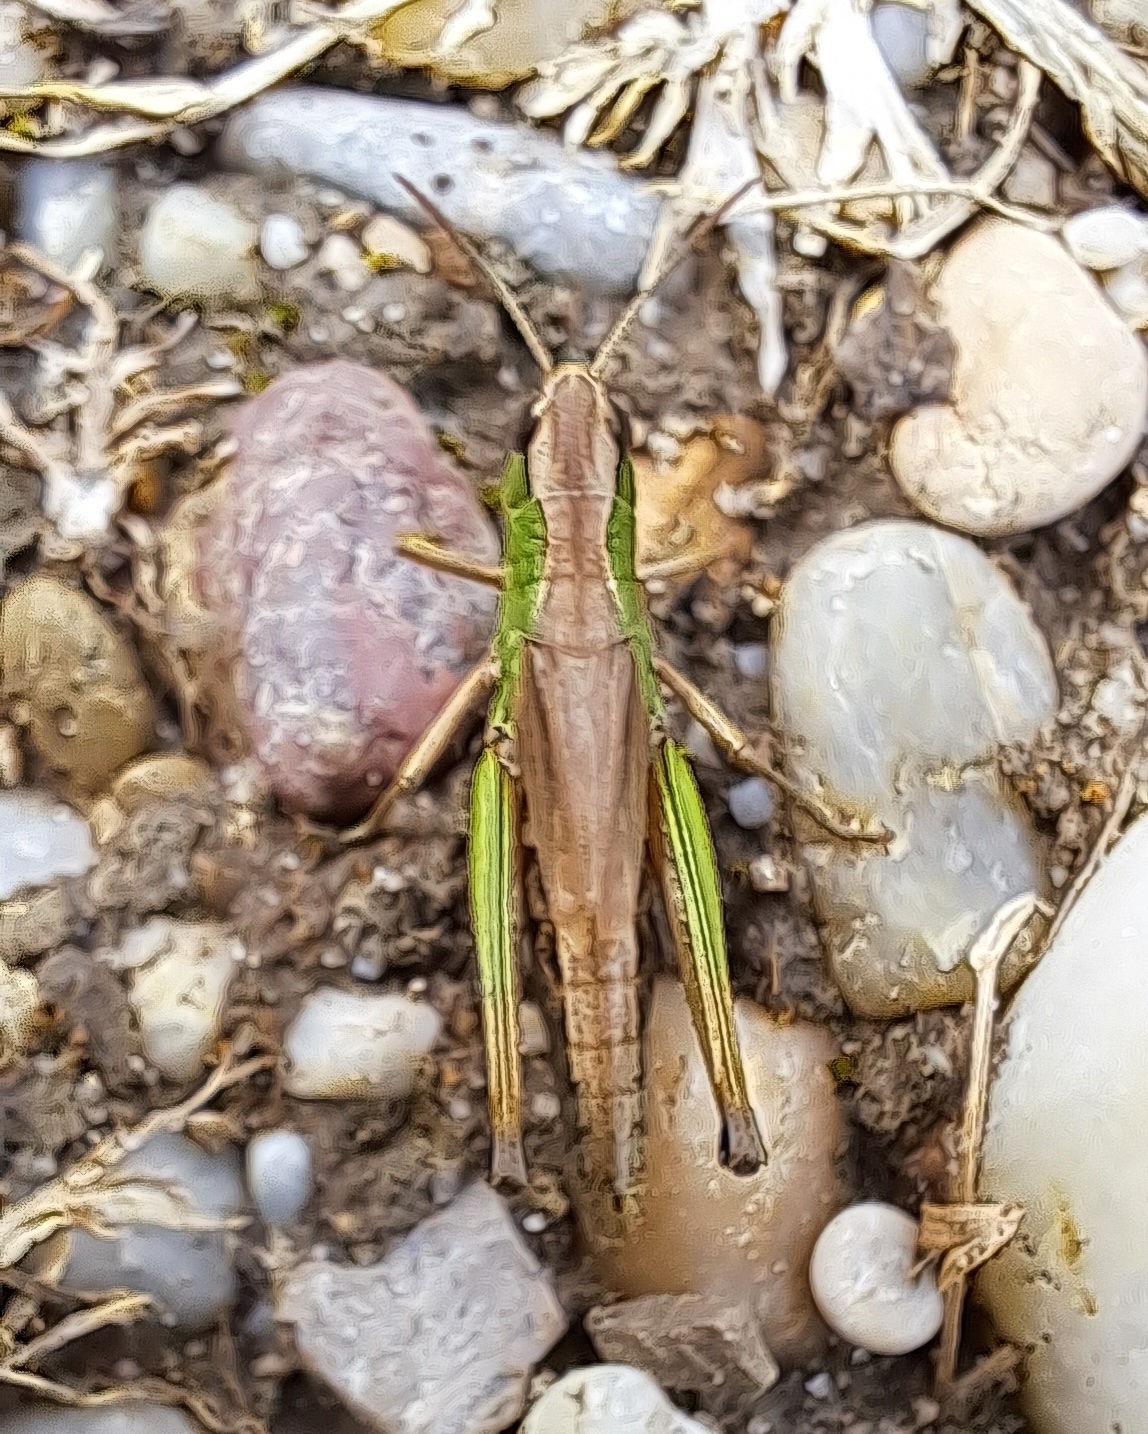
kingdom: Animalia
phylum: Arthropoda
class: Insecta
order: Orthoptera
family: Acrididae
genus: Pseudochorthippus
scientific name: Pseudochorthippus parallelus
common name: Meadow grasshopper
